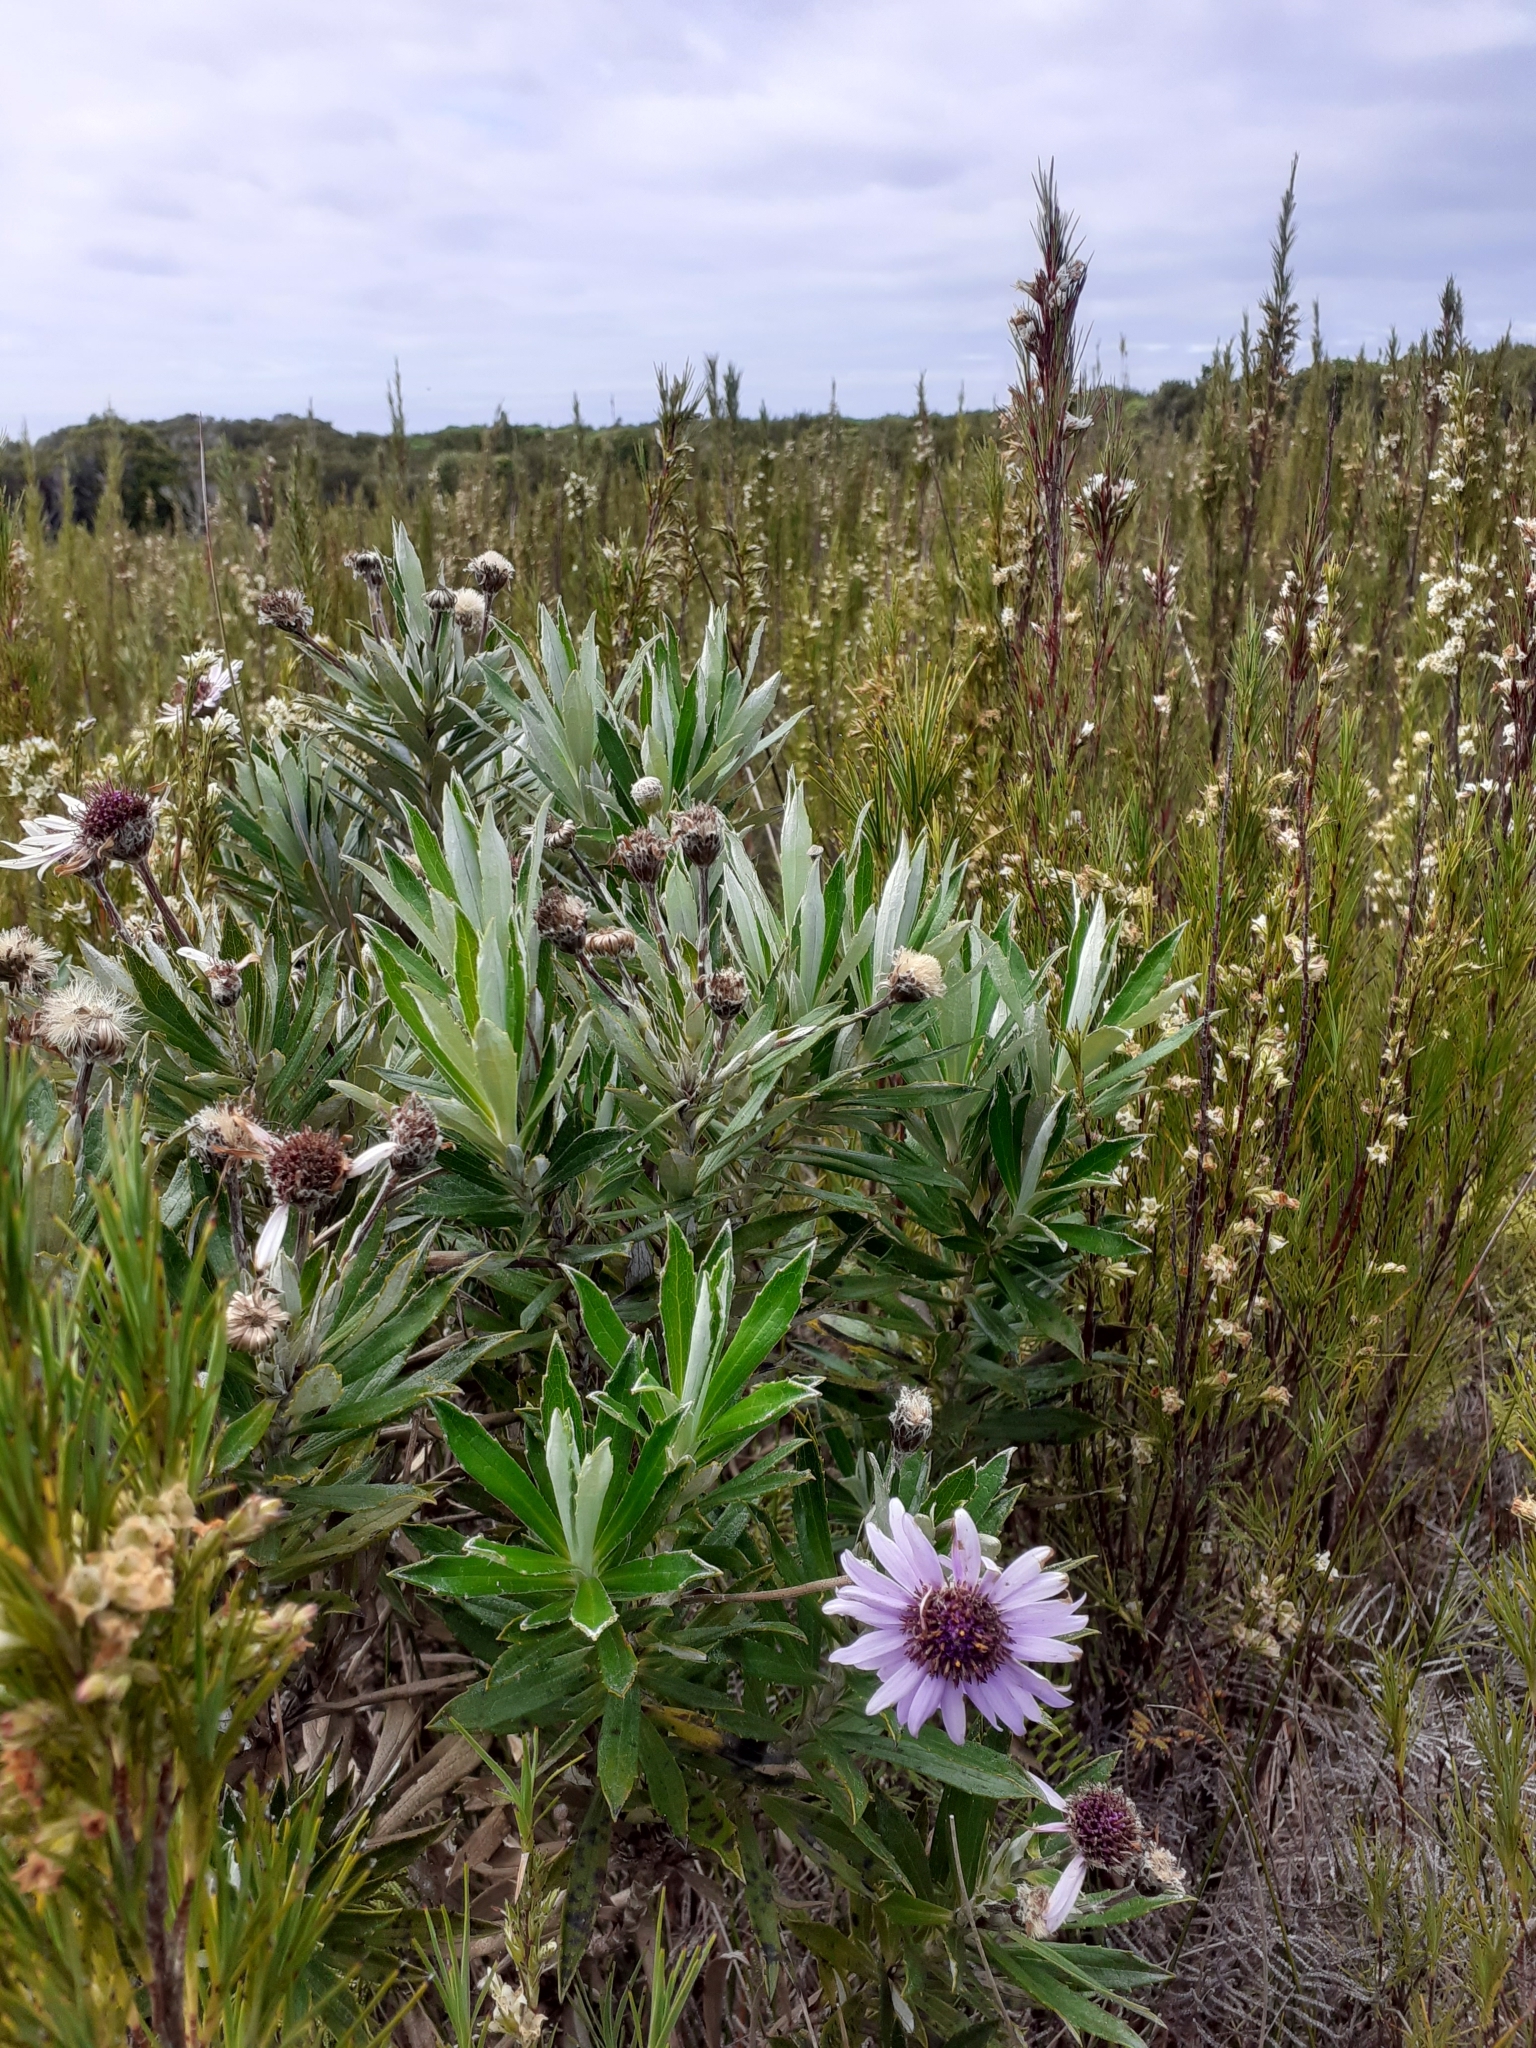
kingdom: Plantae
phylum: Tracheophyta
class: Magnoliopsida
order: Asterales
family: Asteraceae
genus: Macrolearia
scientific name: Macrolearia semidentata
